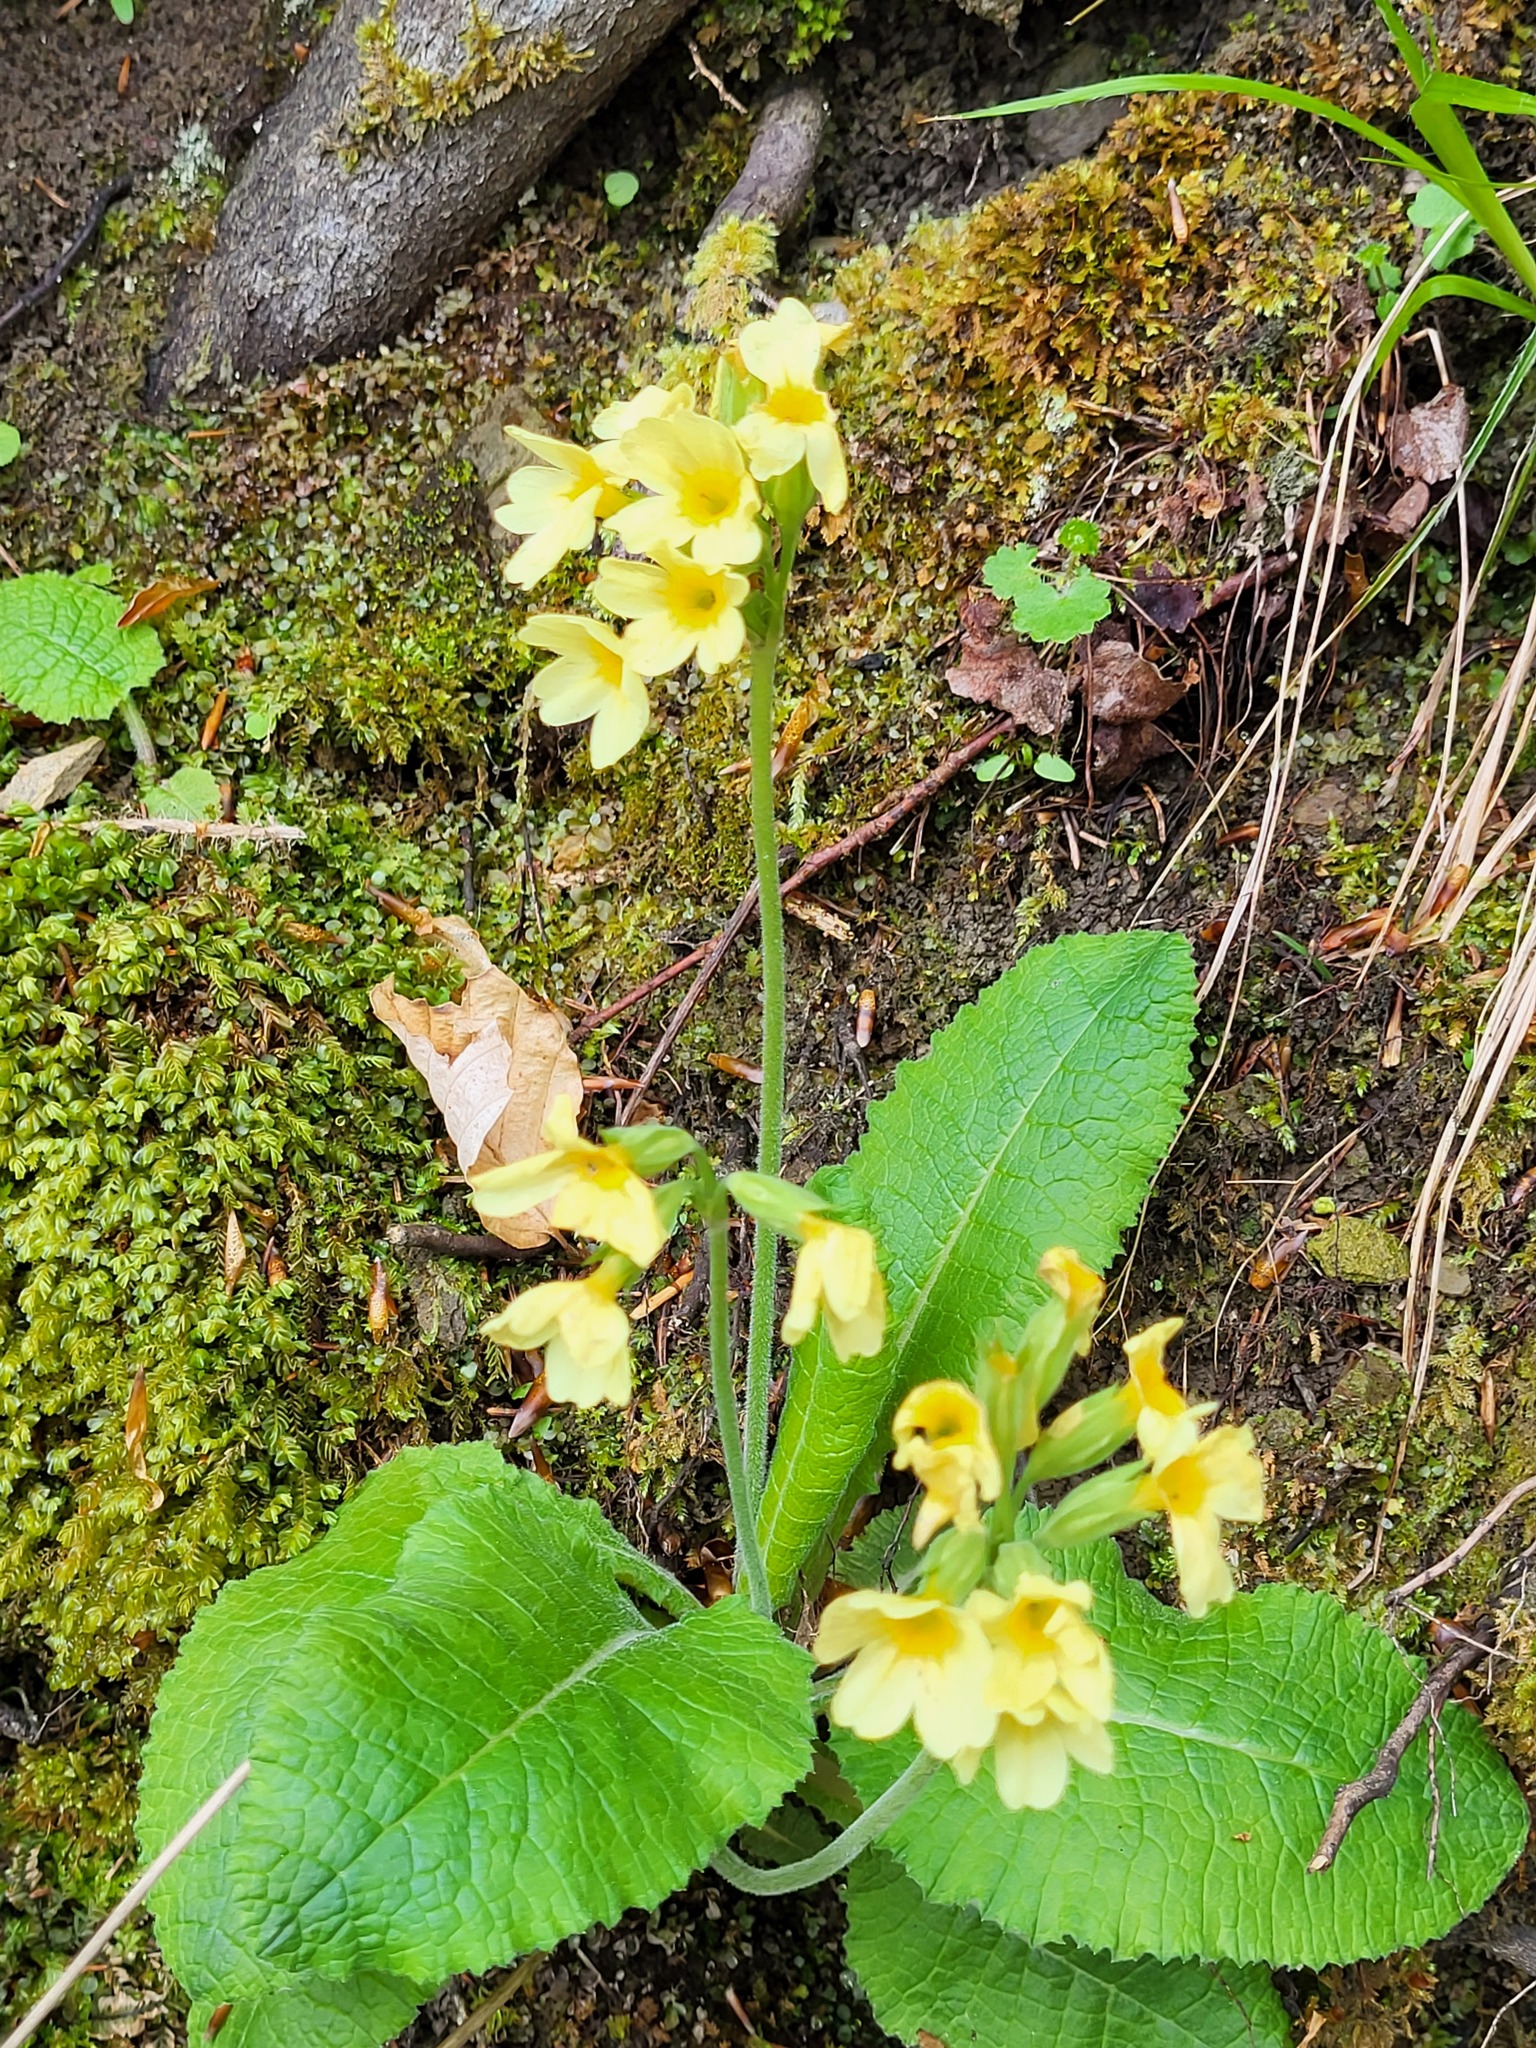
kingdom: Plantae
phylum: Tracheophyta
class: Magnoliopsida
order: Ericales
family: Primulaceae
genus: Primula
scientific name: Primula elatior
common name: Oxlip
